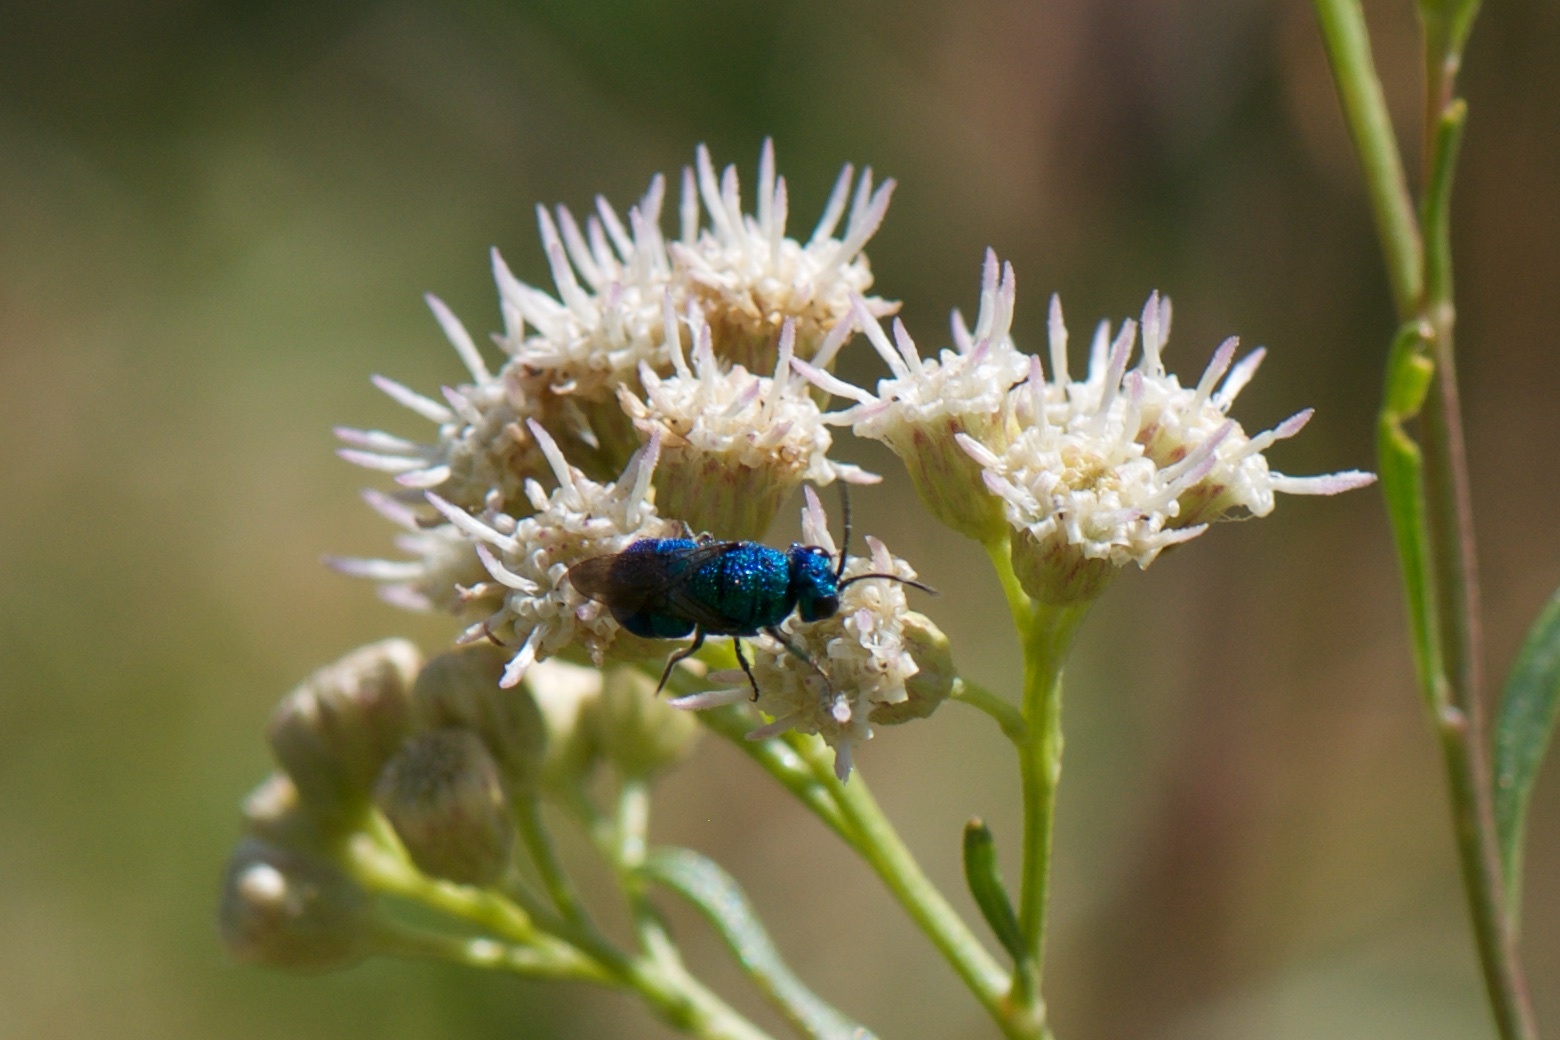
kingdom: Animalia
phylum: Arthropoda
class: Insecta
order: Hymenoptera
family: Chrysididae
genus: Holopyga
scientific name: Holopyga
